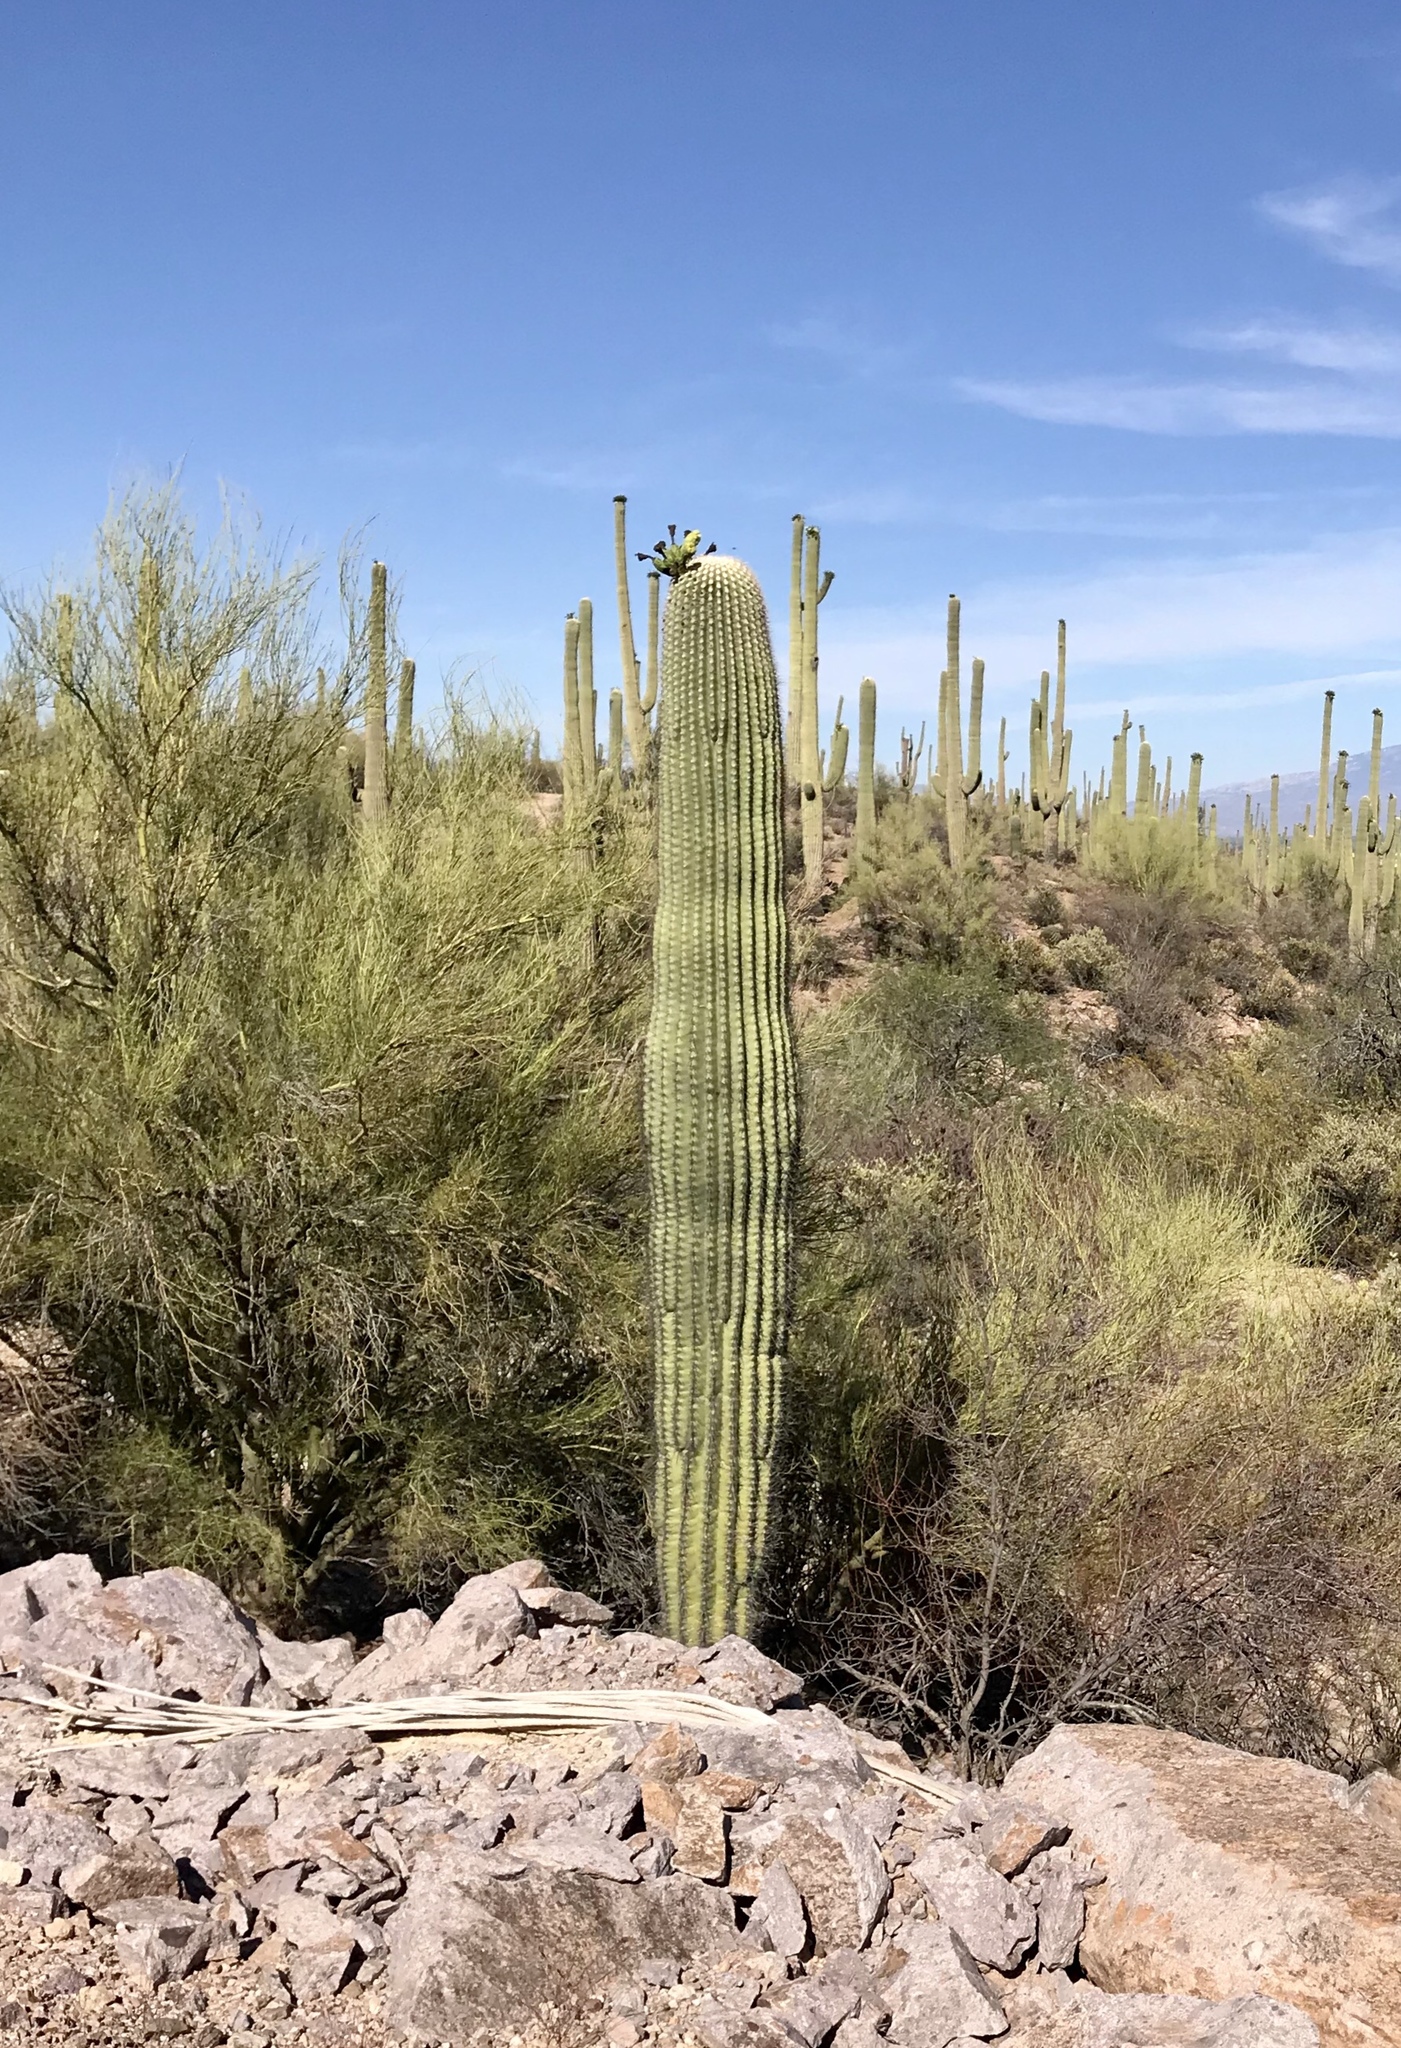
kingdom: Plantae
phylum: Tracheophyta
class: Magnoliopsida
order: Caryophyllales
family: Cactaceae
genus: Carnegiea
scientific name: Carnegiea gigantea
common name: Saguaro
